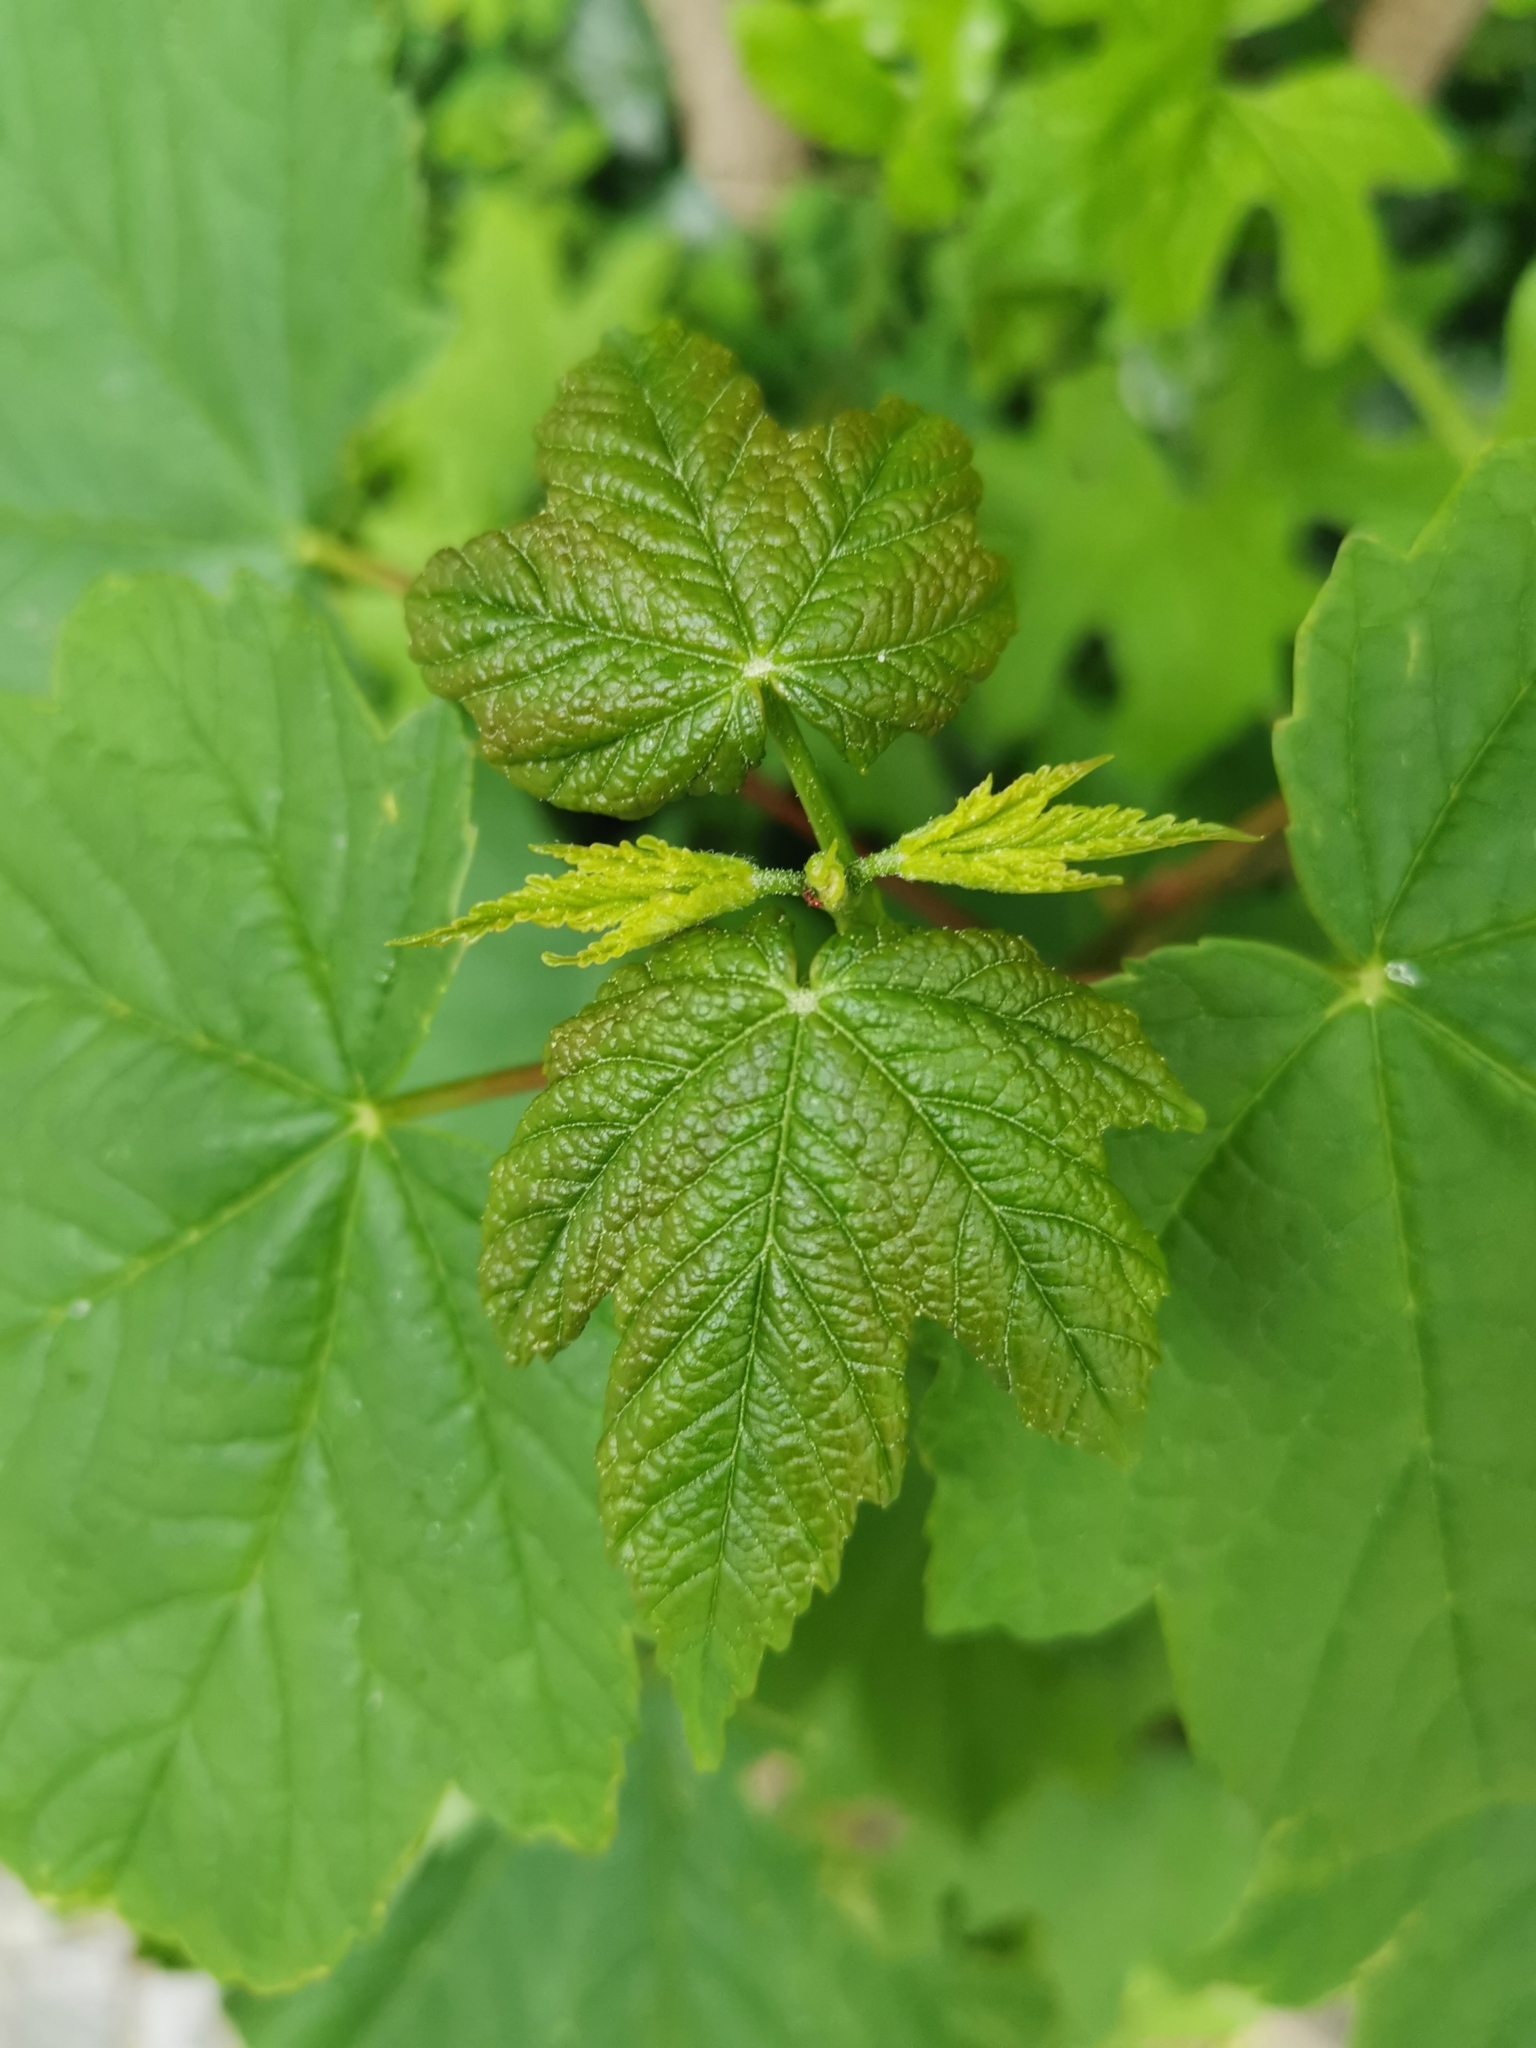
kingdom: Plantae
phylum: Tracheophyta
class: Magnoliopsida
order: Sapindales
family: Sapindaceae
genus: Acer
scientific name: Acer pseudoplatanus
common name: Sycamore
